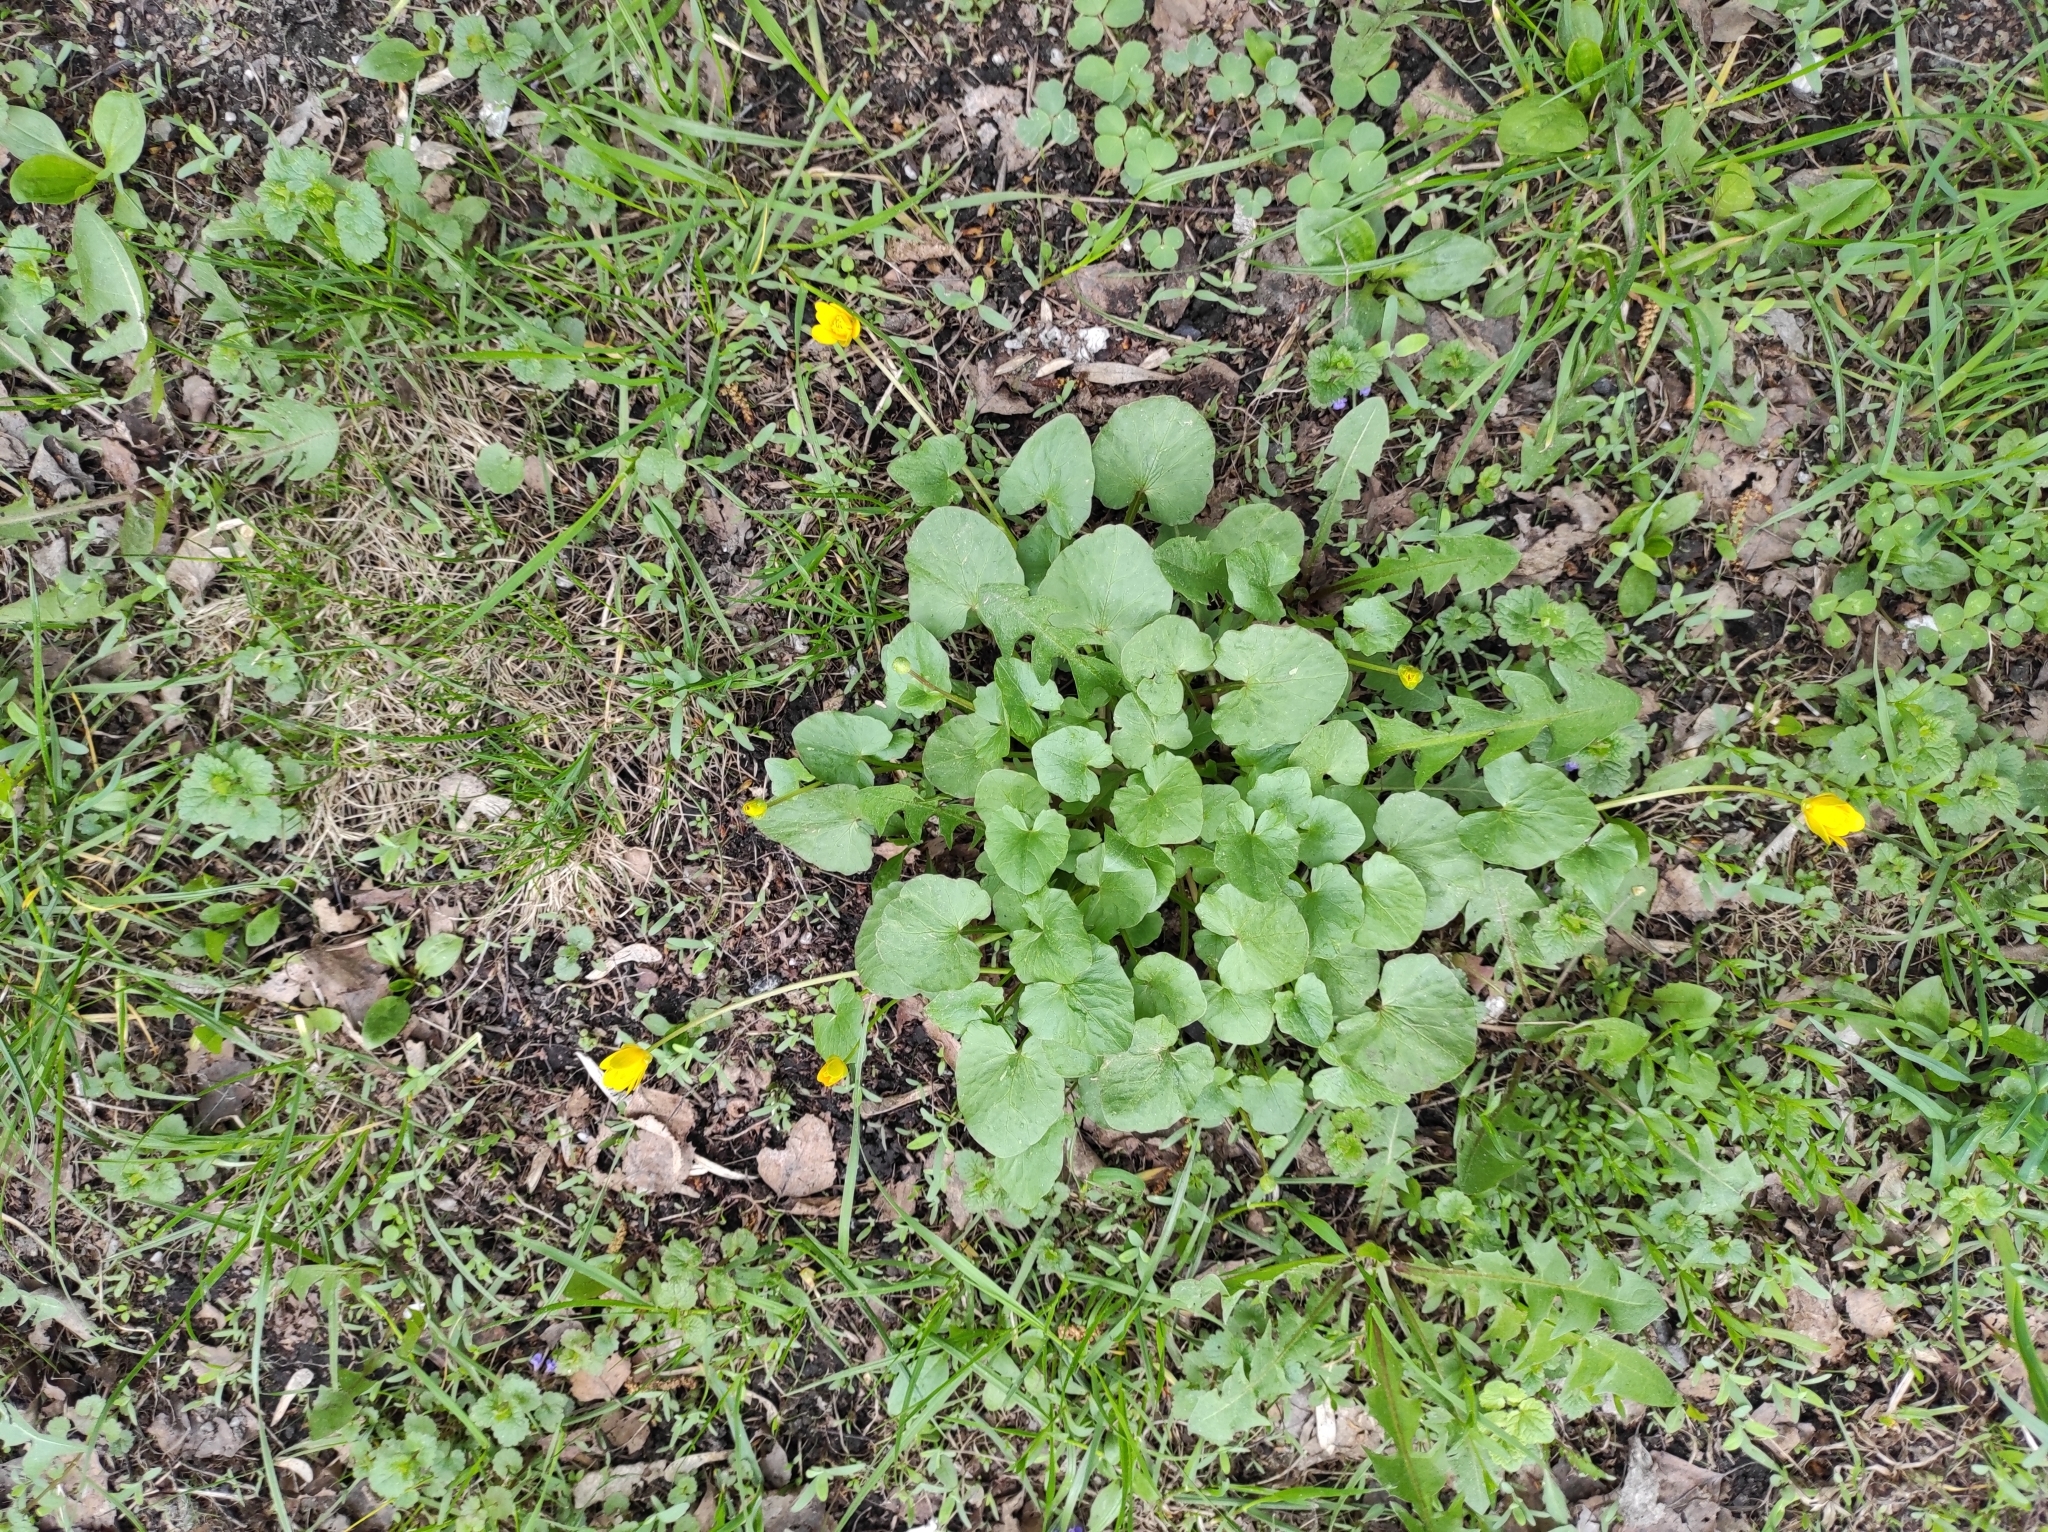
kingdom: Plantae
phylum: Tracheophyta
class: Magnoliopsida
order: Ranunculales
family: Ranunculaceae
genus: Ficaria
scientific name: Ficaria verna
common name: Lesser celandine
